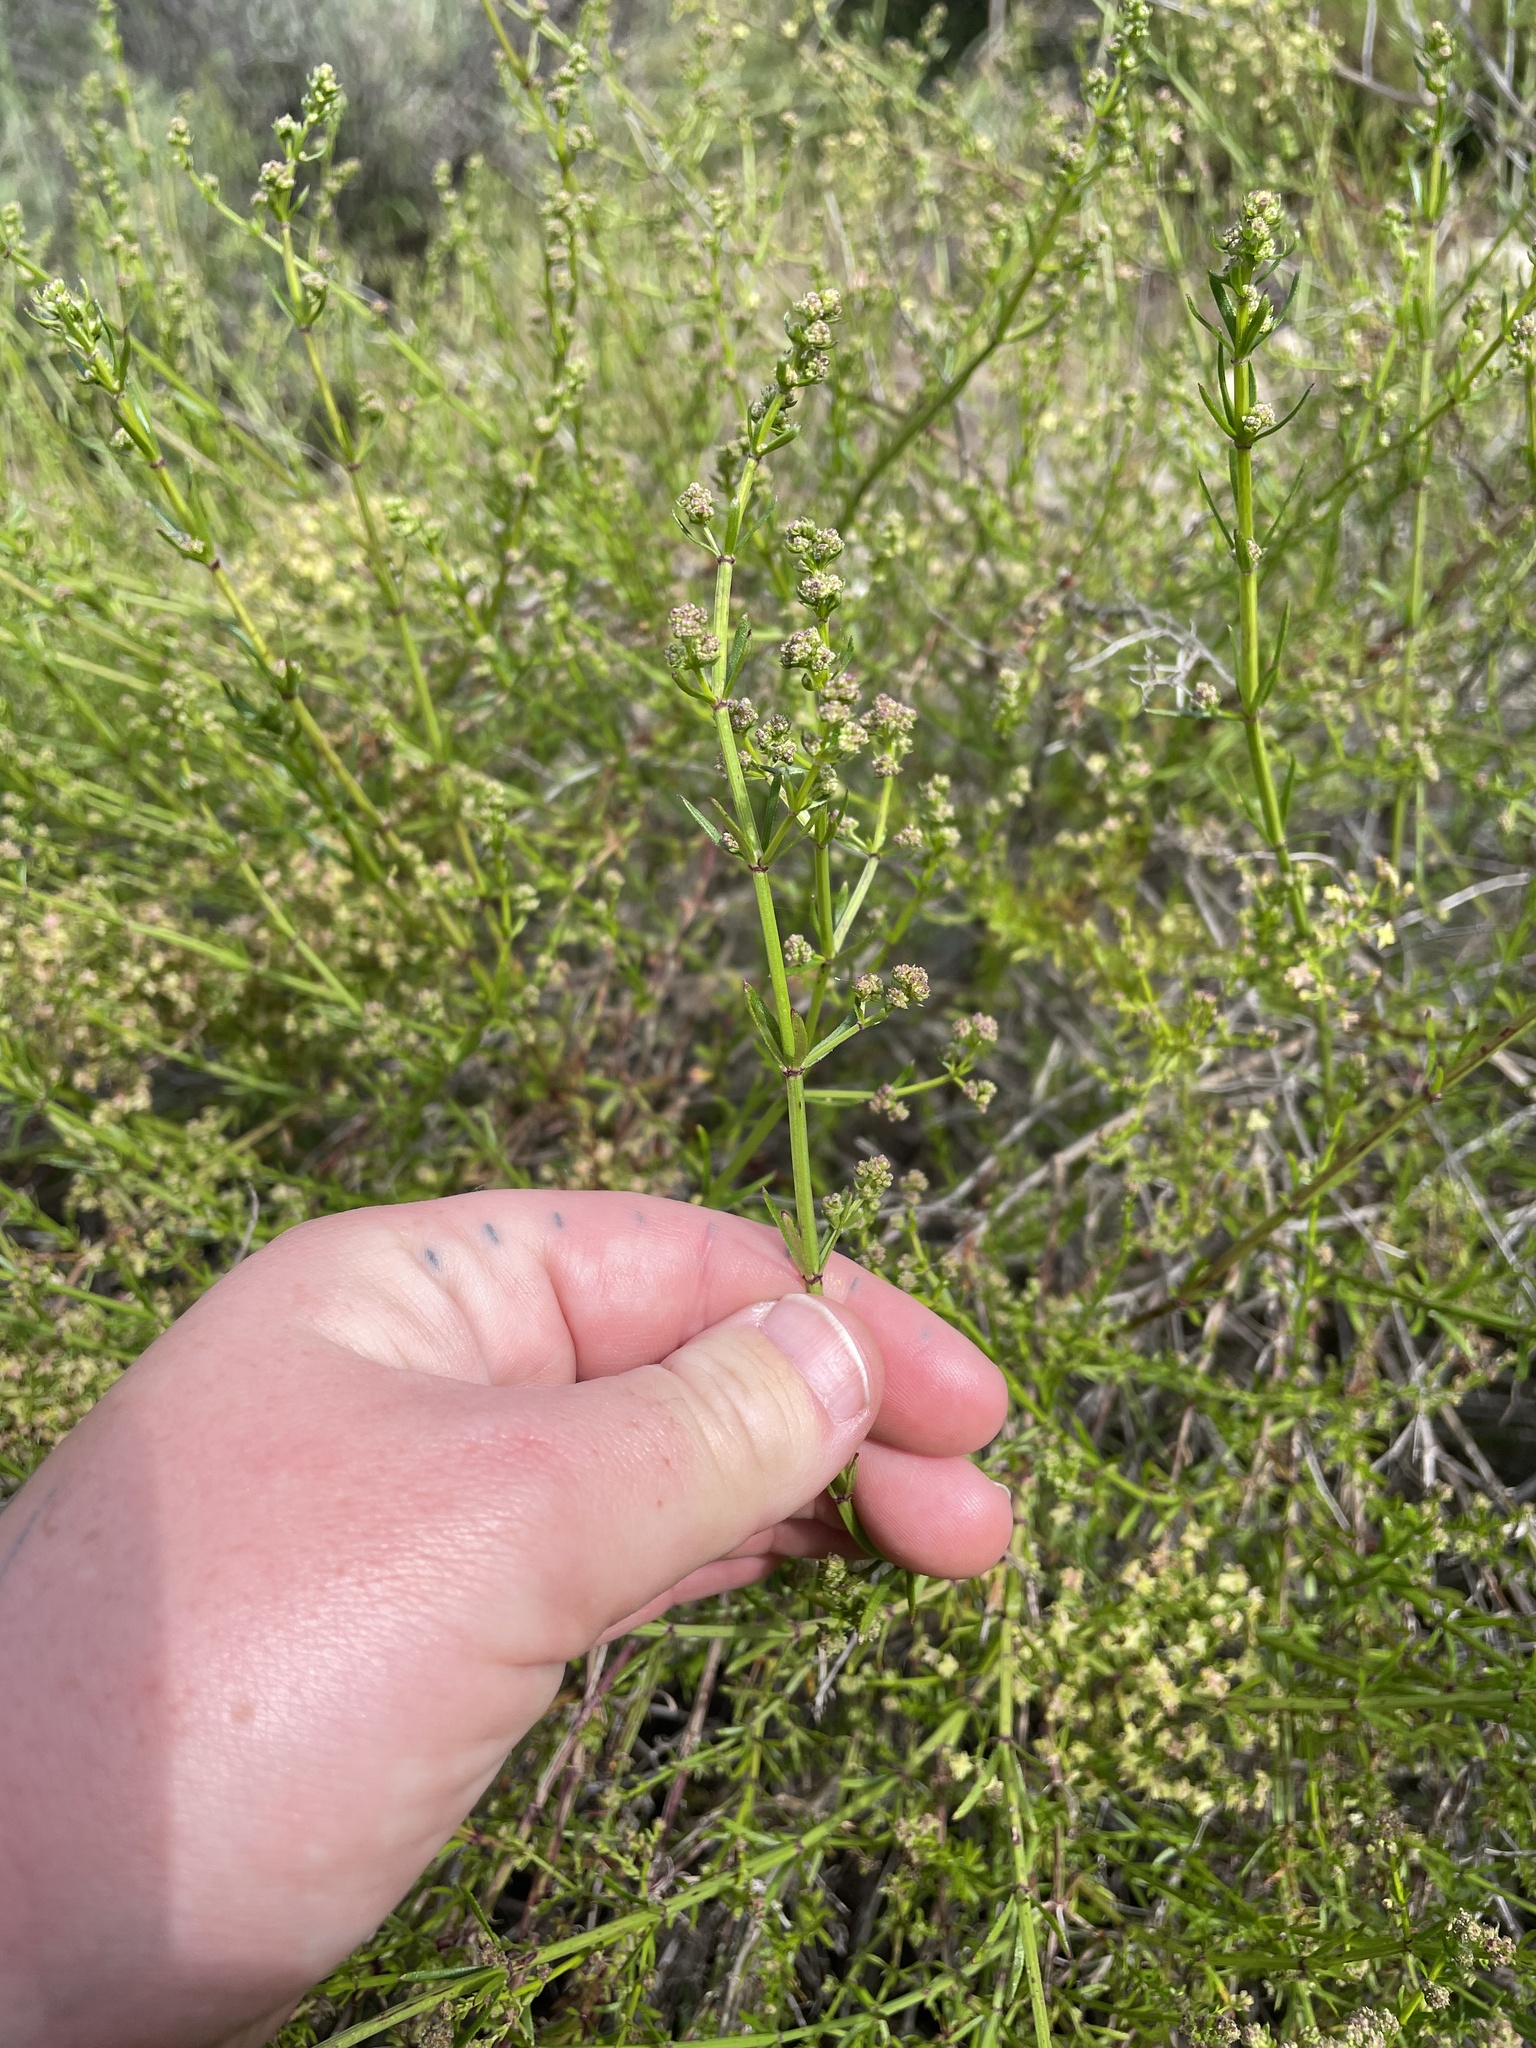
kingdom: Plantae
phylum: Tracheophyta
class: Magnoliopsida
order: Gentianales
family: Rubiaceae
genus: Galium
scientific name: Galium angustifolium
